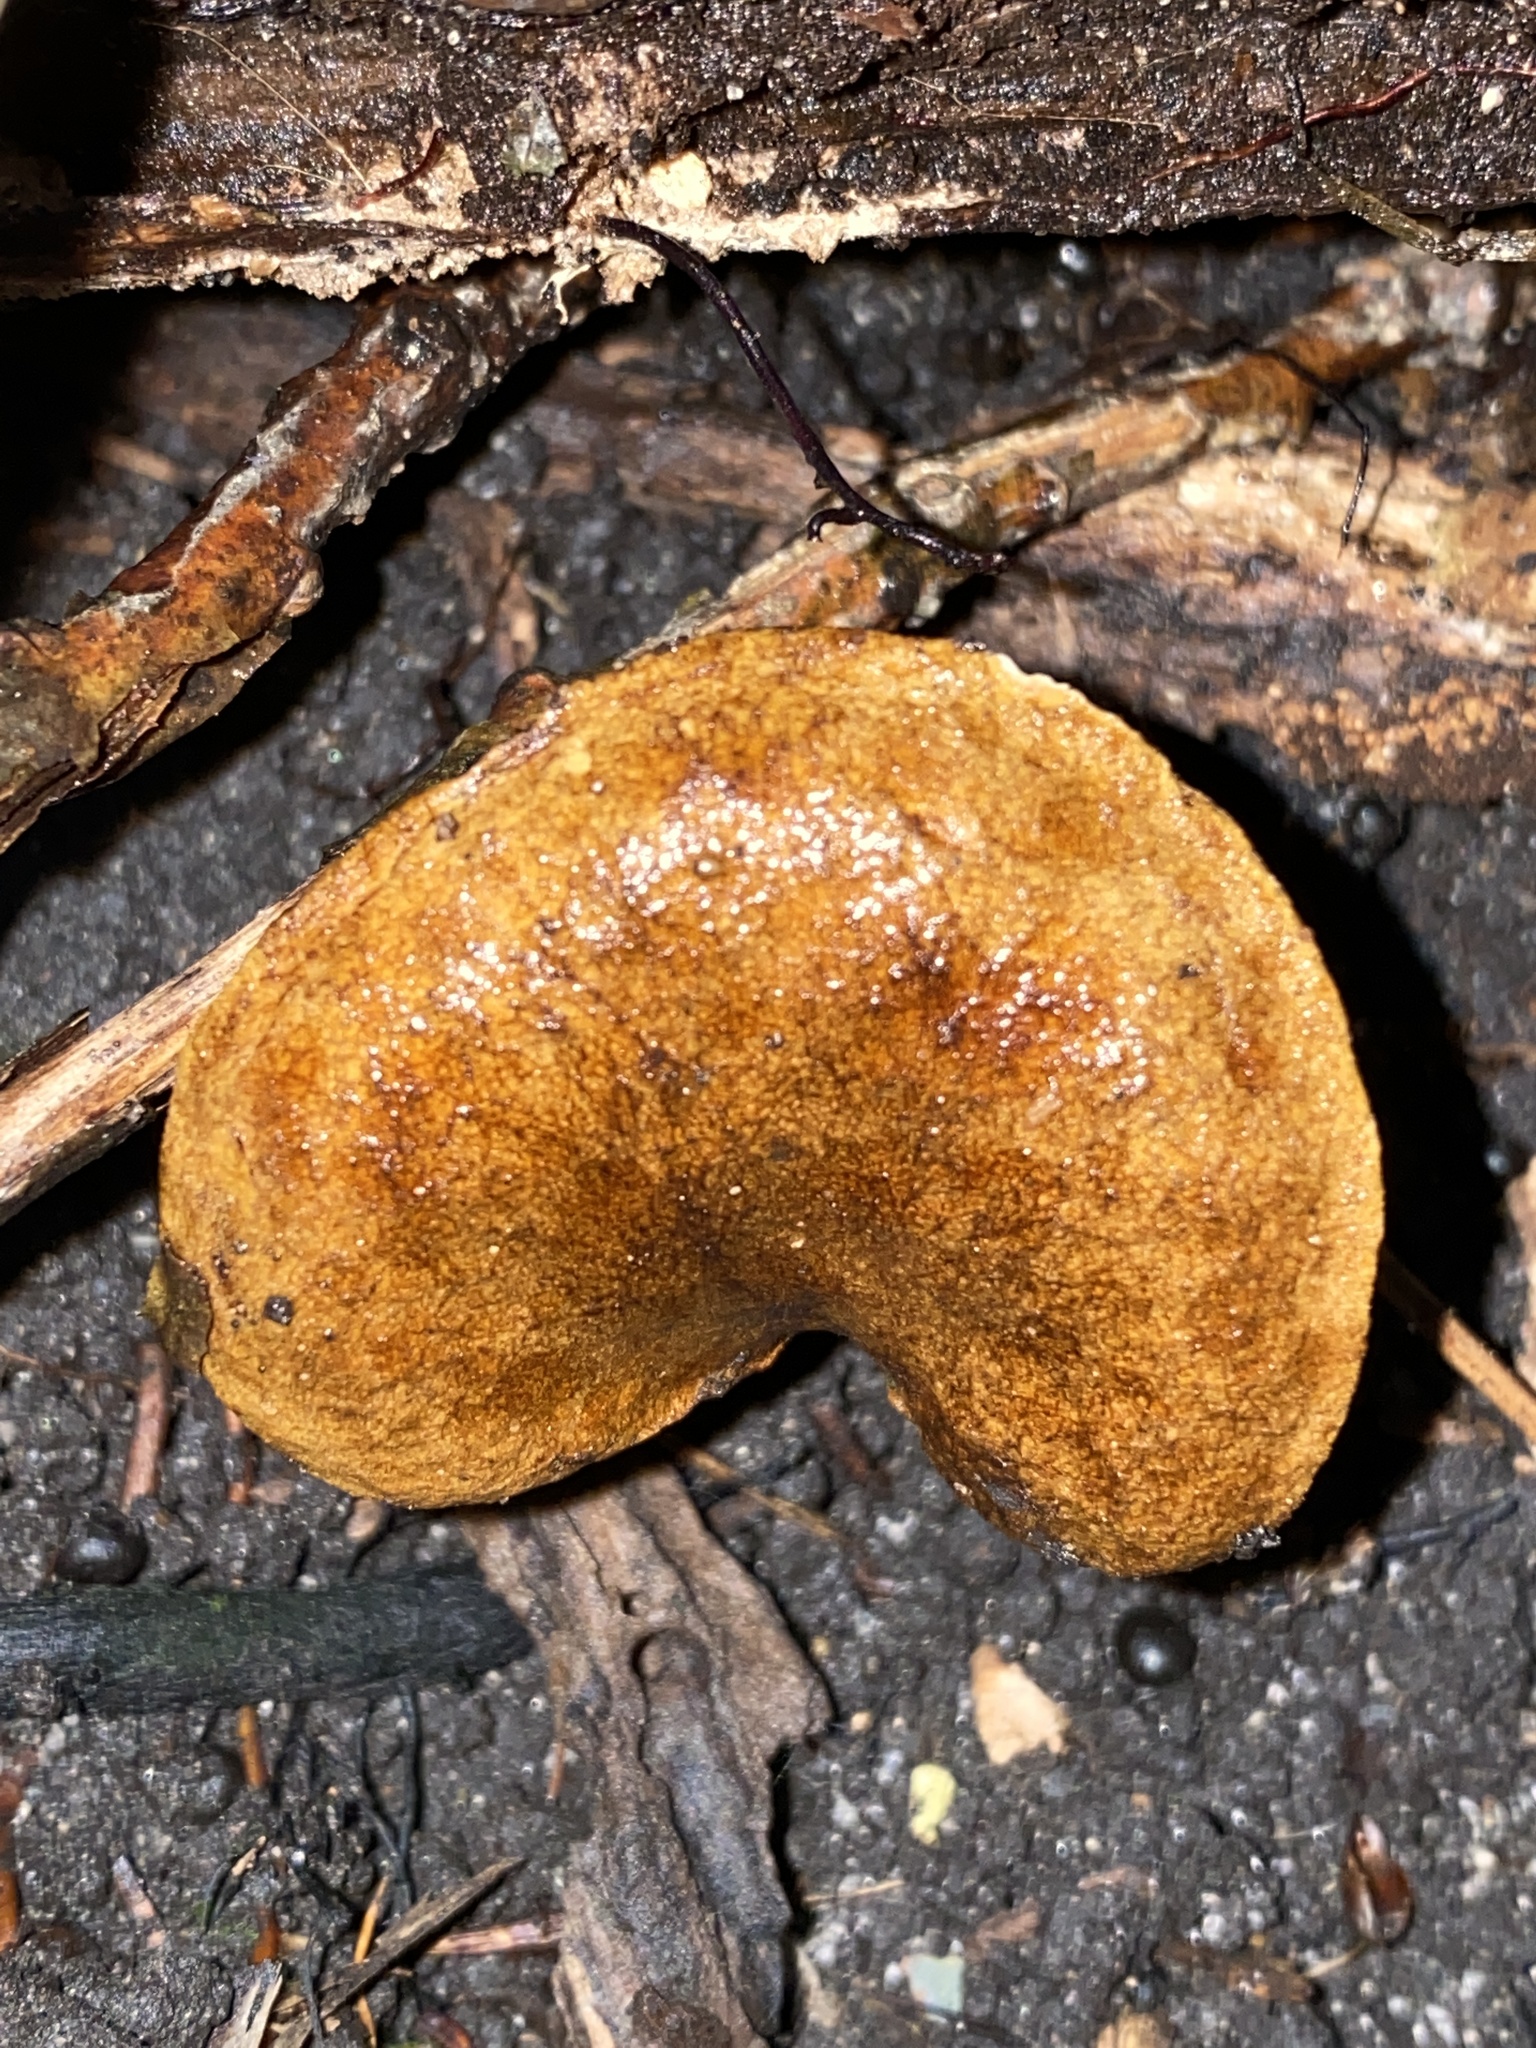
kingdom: Fungi
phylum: Basidiomycota
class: Agaricomycetes
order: Boletales
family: Boletinellaceae
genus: Boletinellus
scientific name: Boletinellus merulioides
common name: Ash tree bolete
